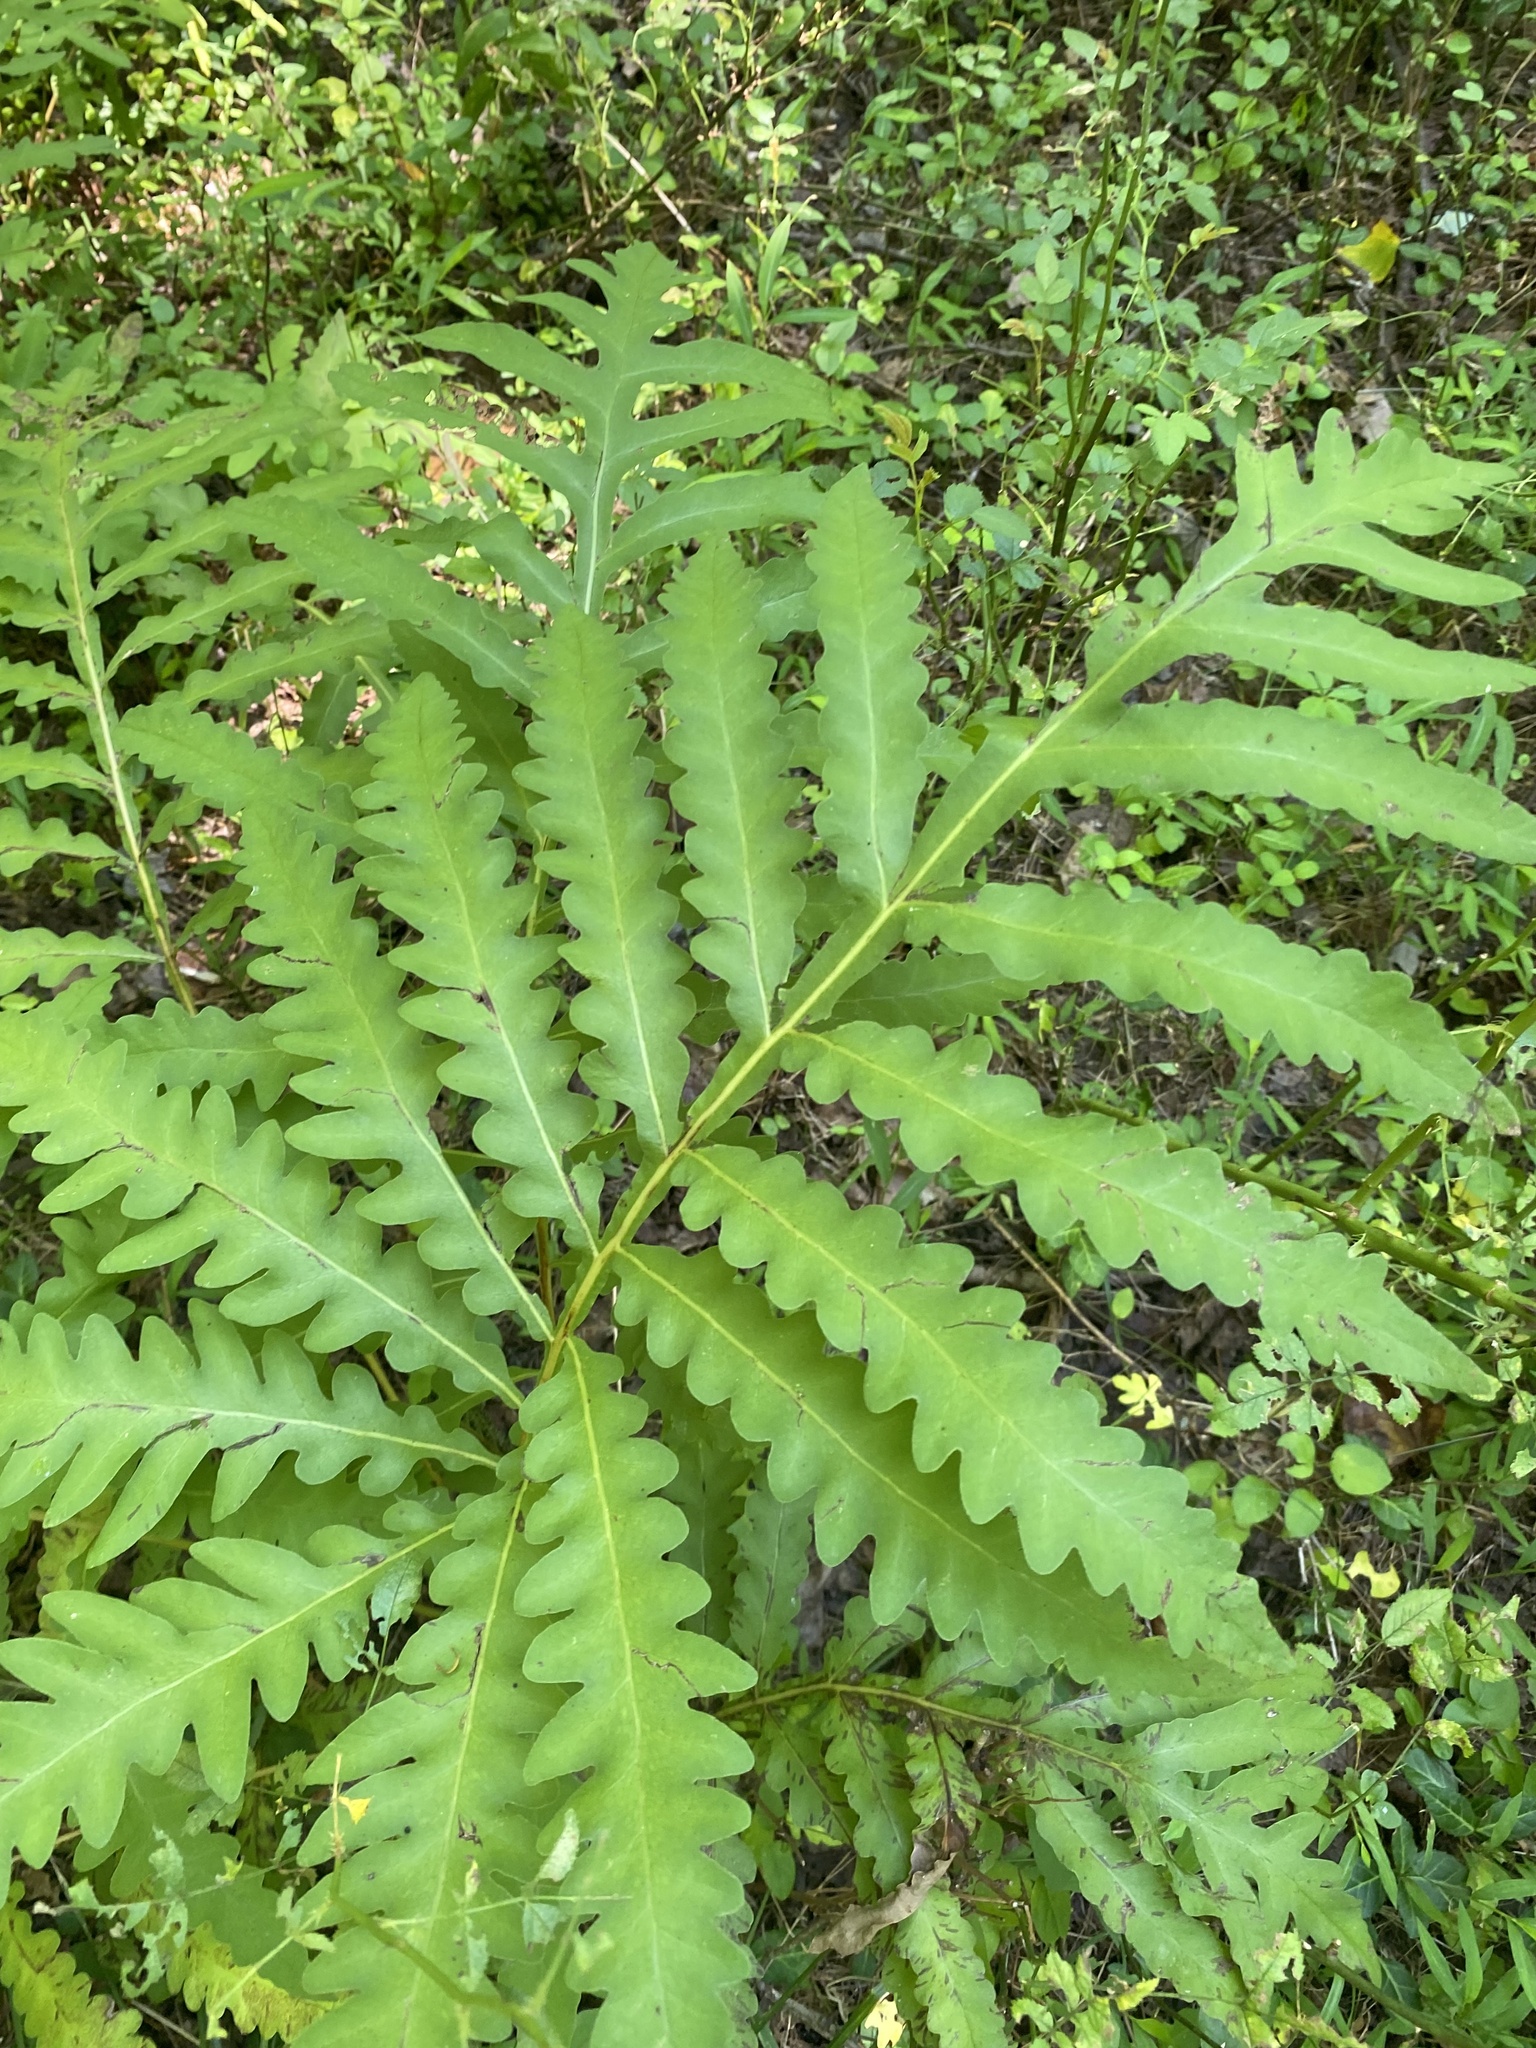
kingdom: Plantae
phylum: Tracheophyta
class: Polypodiopsida
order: Polypodiales
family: Onocleaceae
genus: Onoclea
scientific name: Onoclea sensibilis
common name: Sensitive fern
